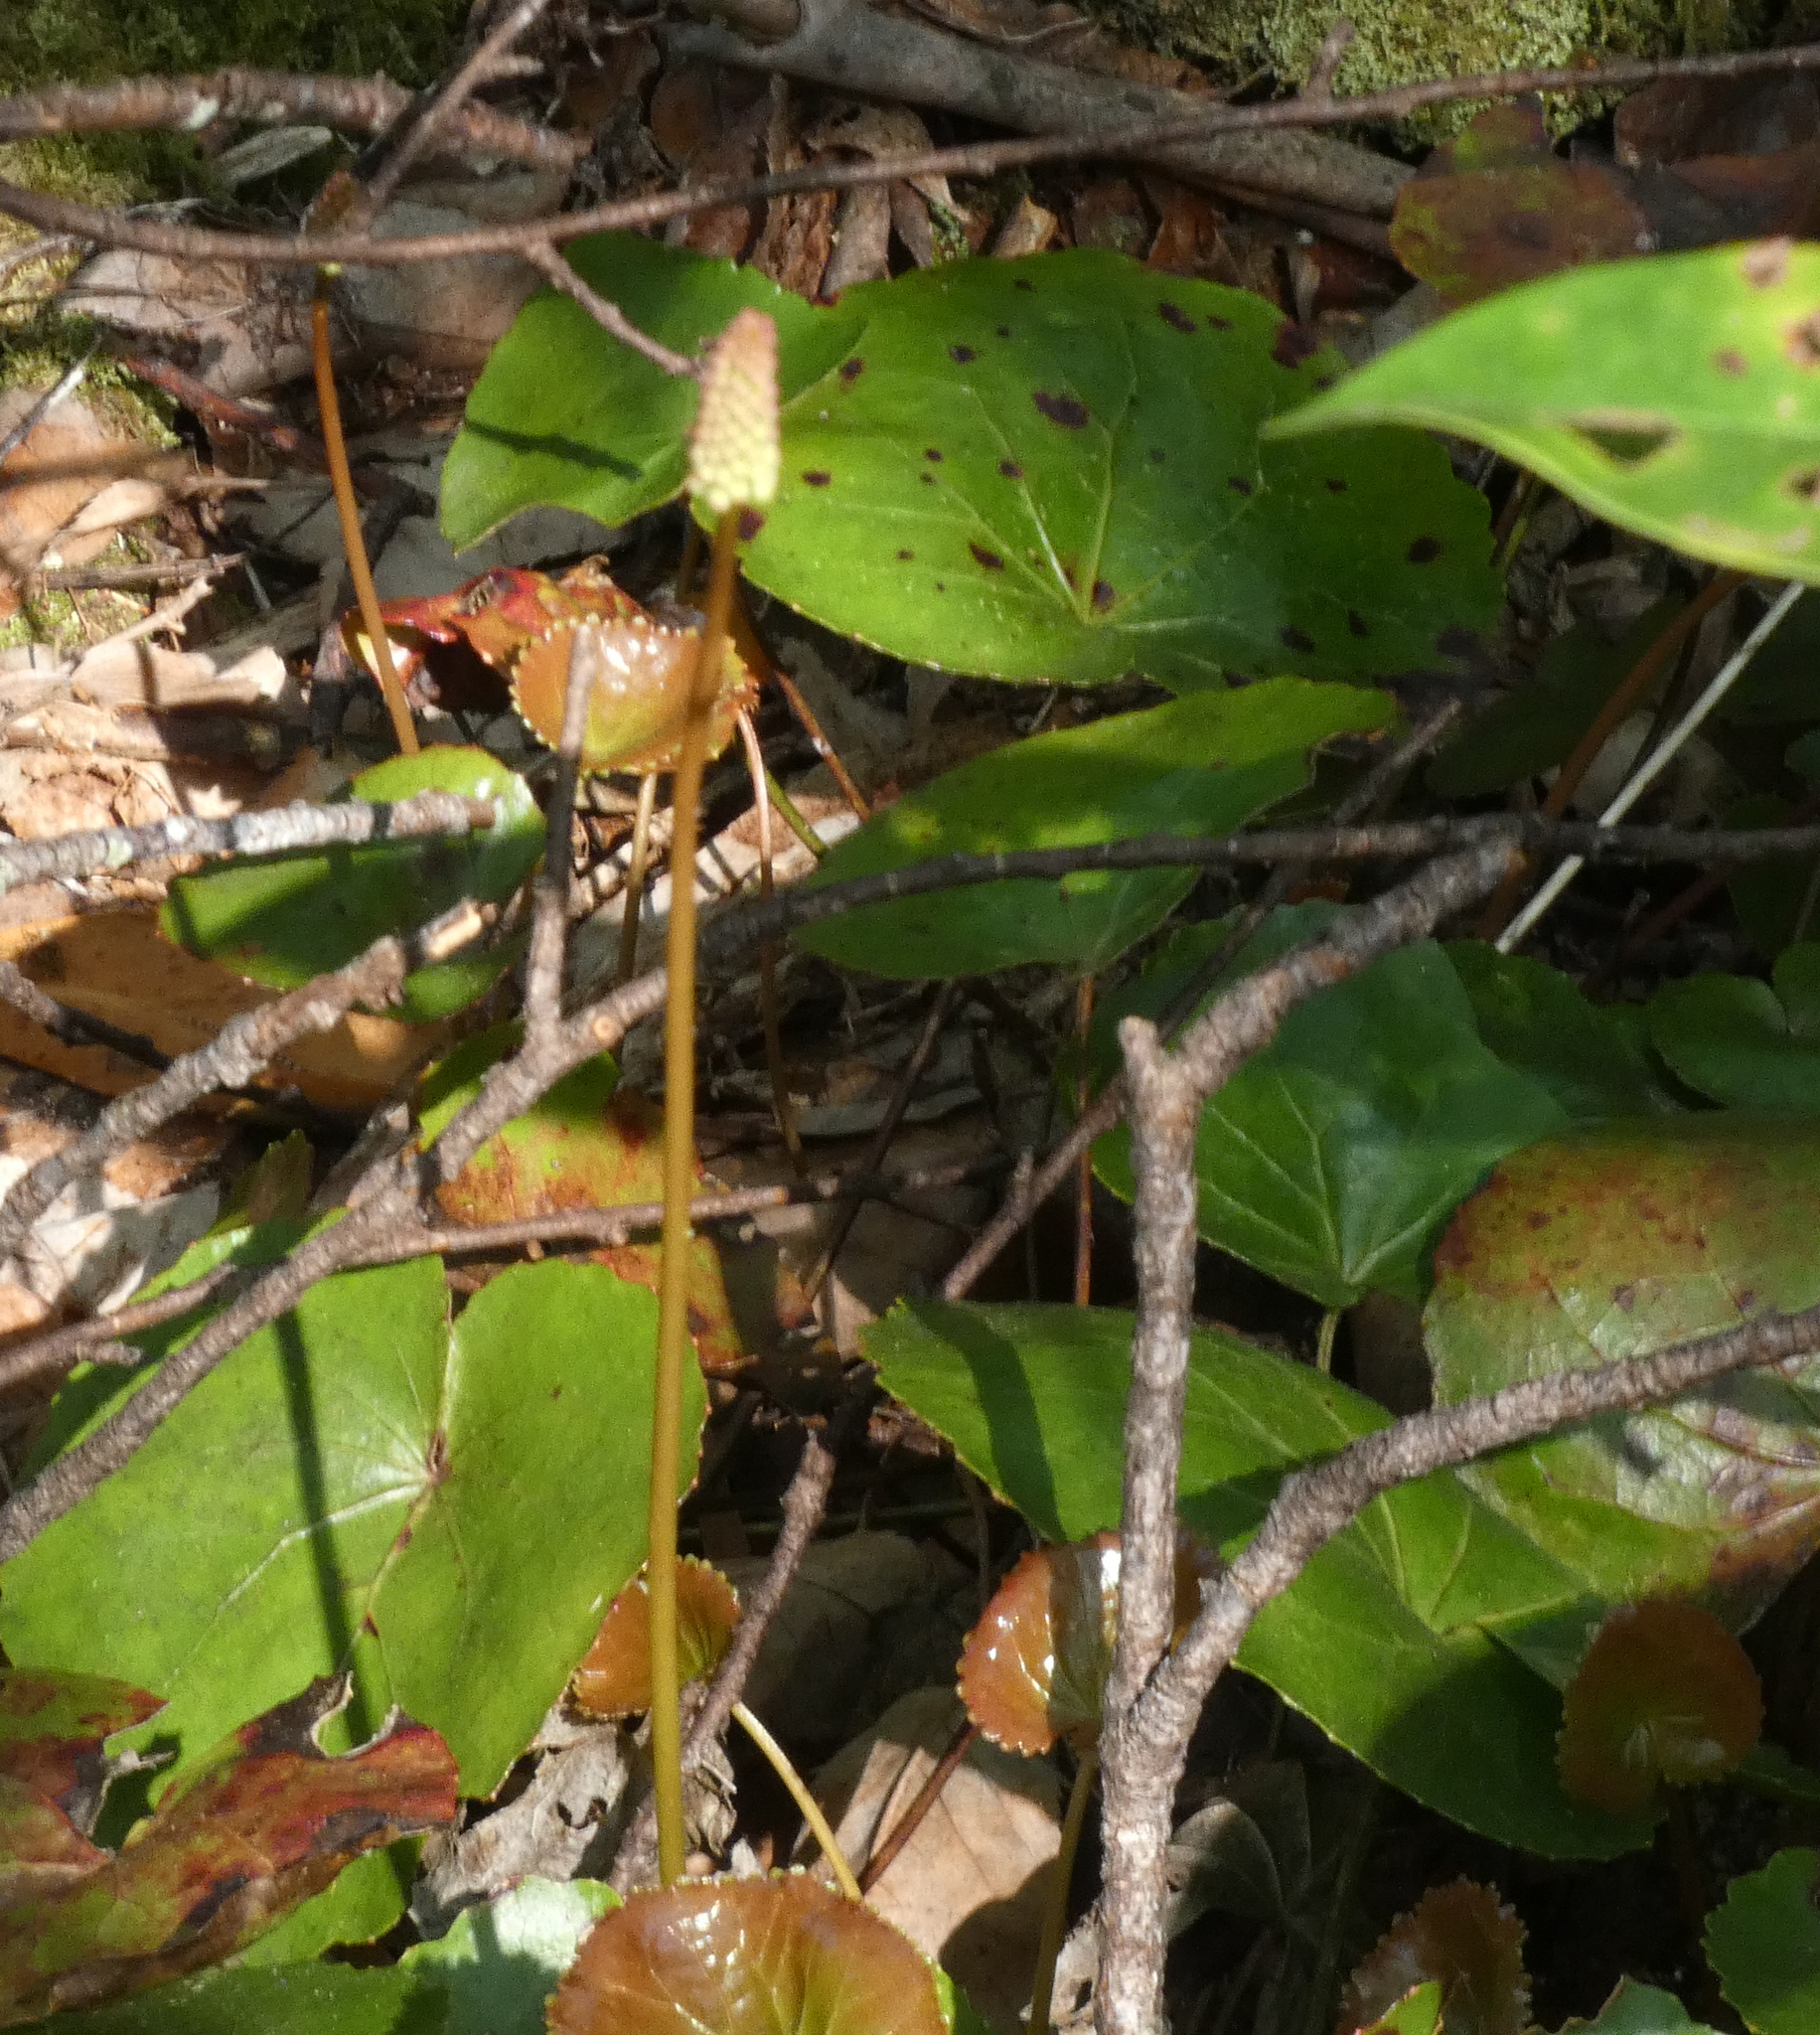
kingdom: Plantae
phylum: Tracheophyta
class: Magnoliopsida
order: Ericales
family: Diapensiaceae
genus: Galax
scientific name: Galax urceolata
